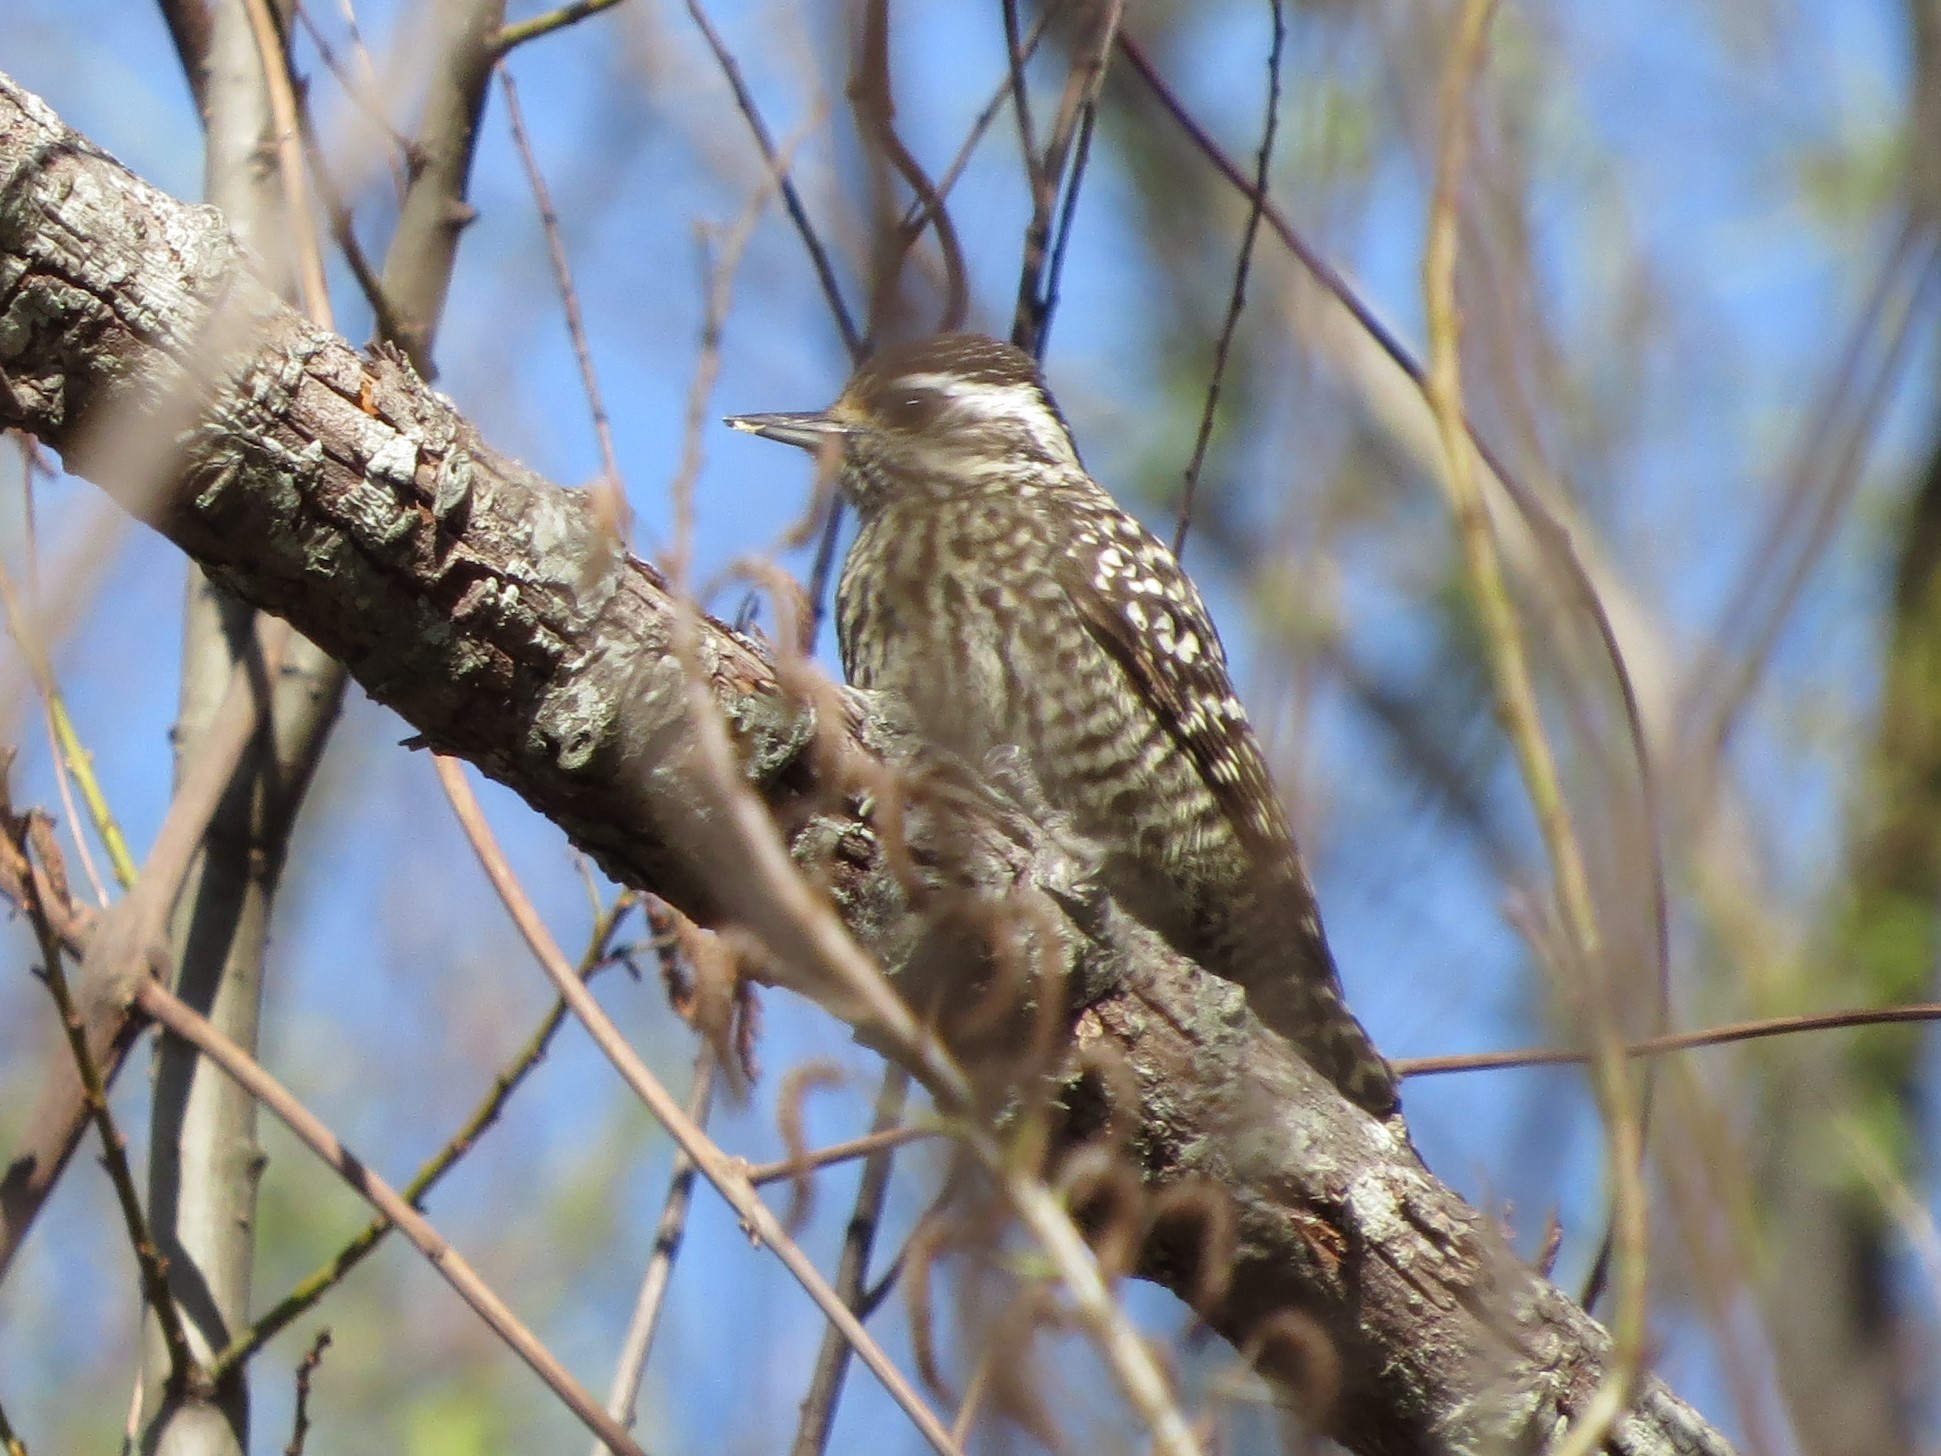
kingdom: Animalia
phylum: Chordata
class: Aves
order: Piciformes
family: Picidae
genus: Veniliornis
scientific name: Veniliornis mixtus
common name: Checkered woodpecker
